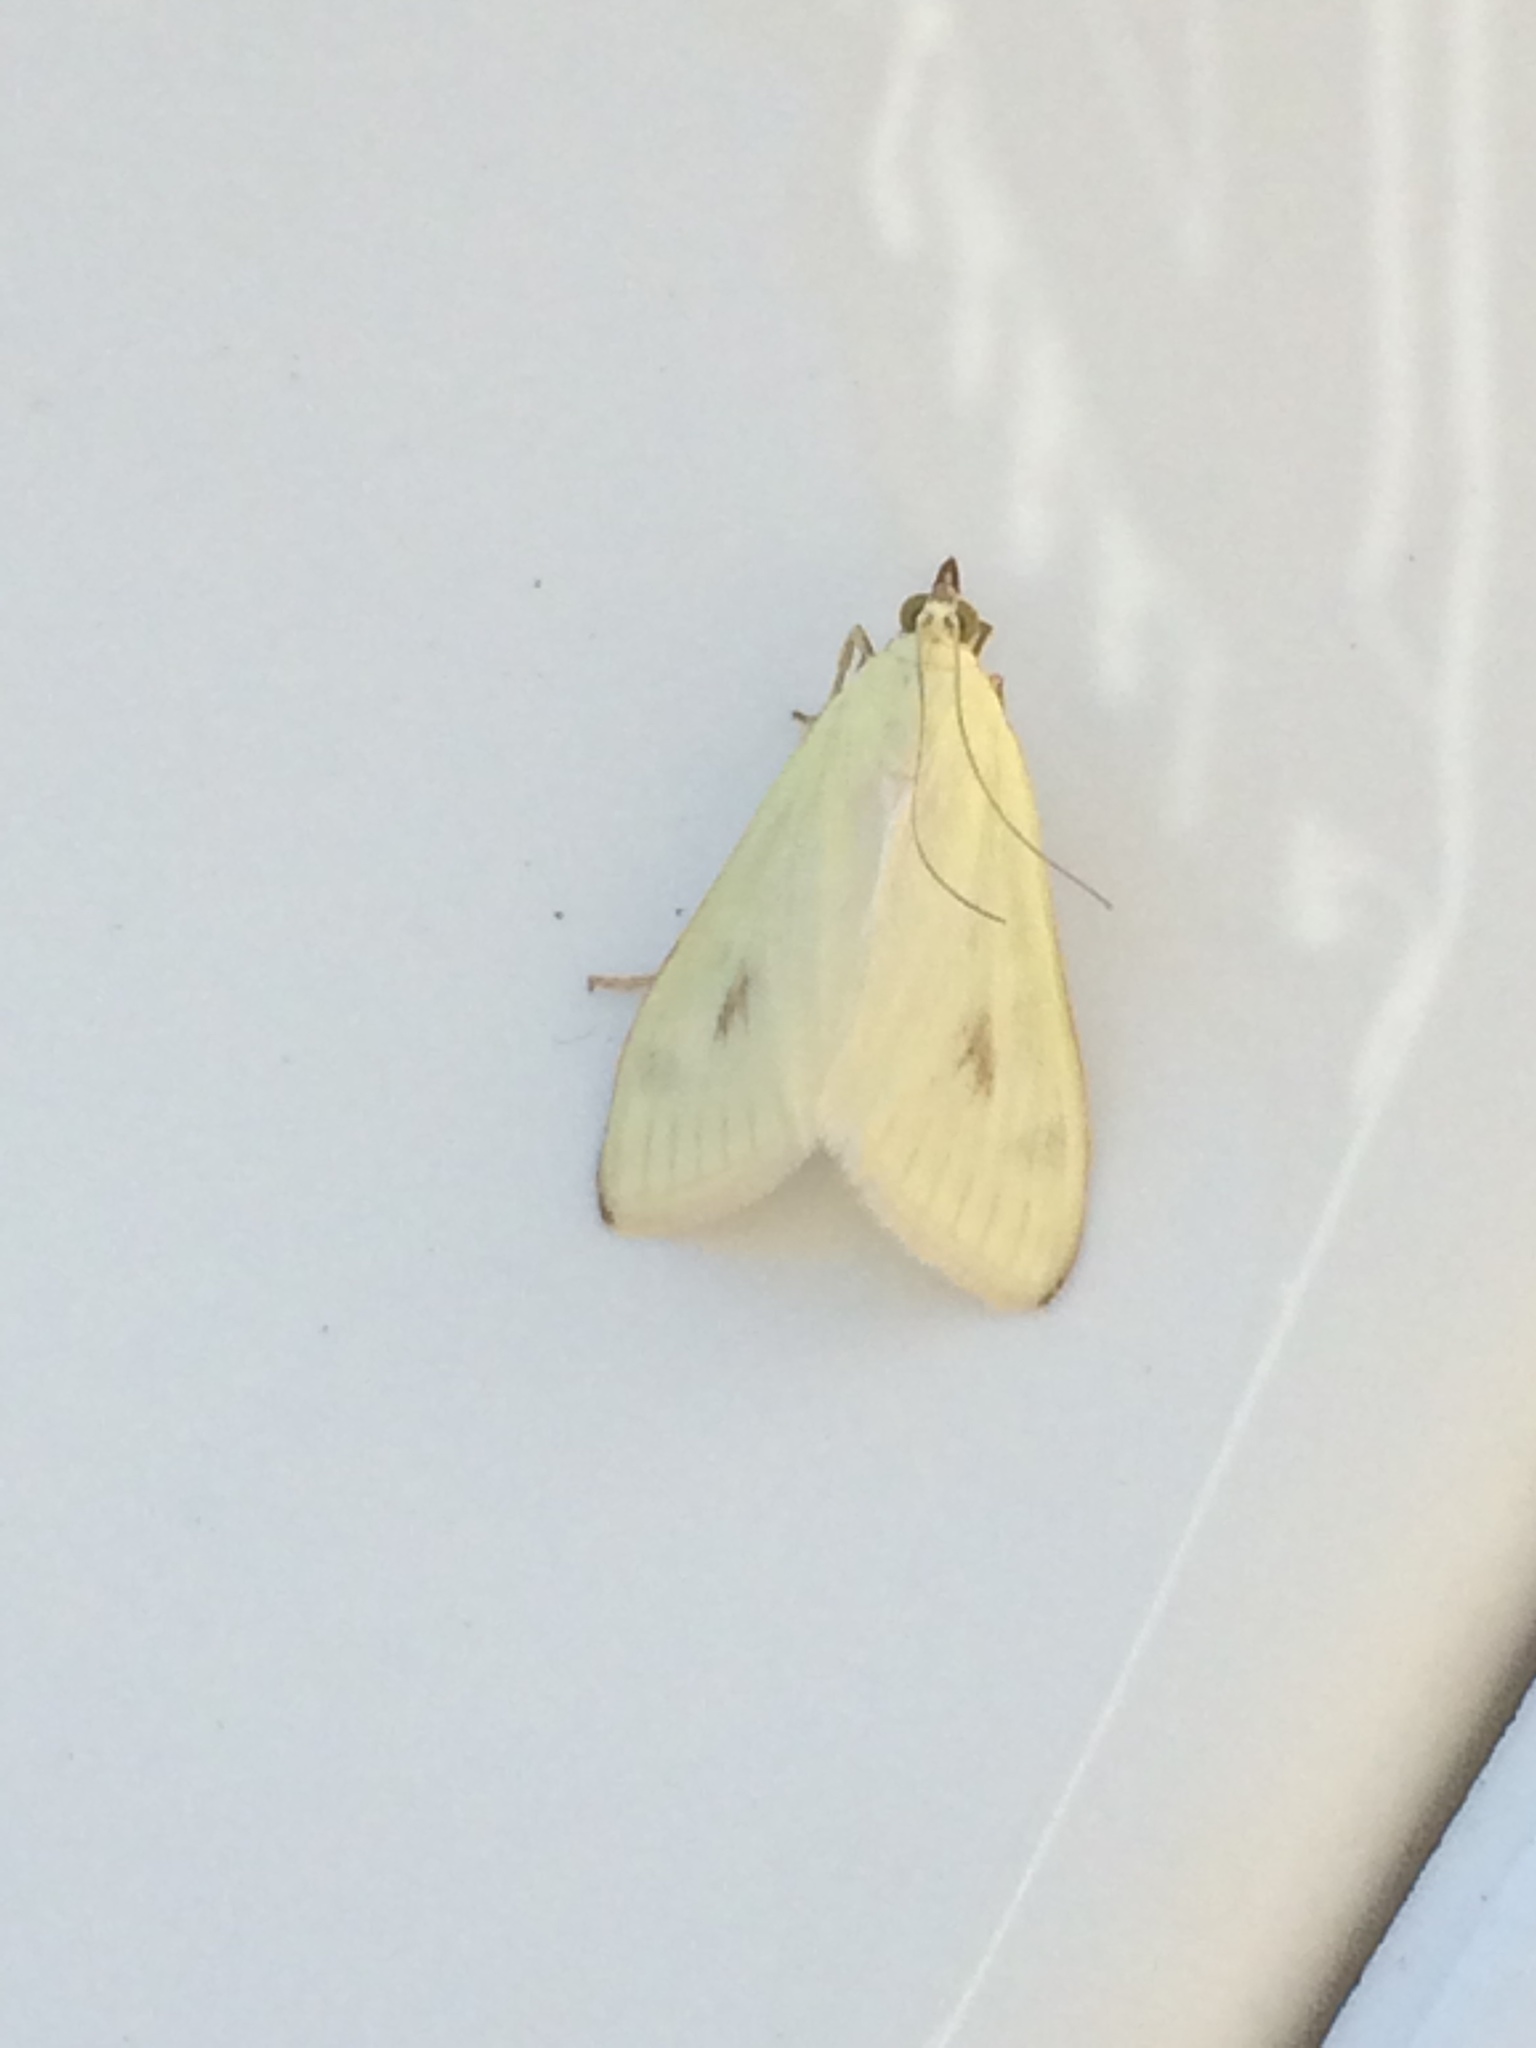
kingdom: Animalia
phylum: Arthropoda
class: Insecta
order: Lepidoptera
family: Crambidae
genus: Sitochroa
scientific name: Sitochroa palealis
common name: Greenish-yellow sitochroa moth
